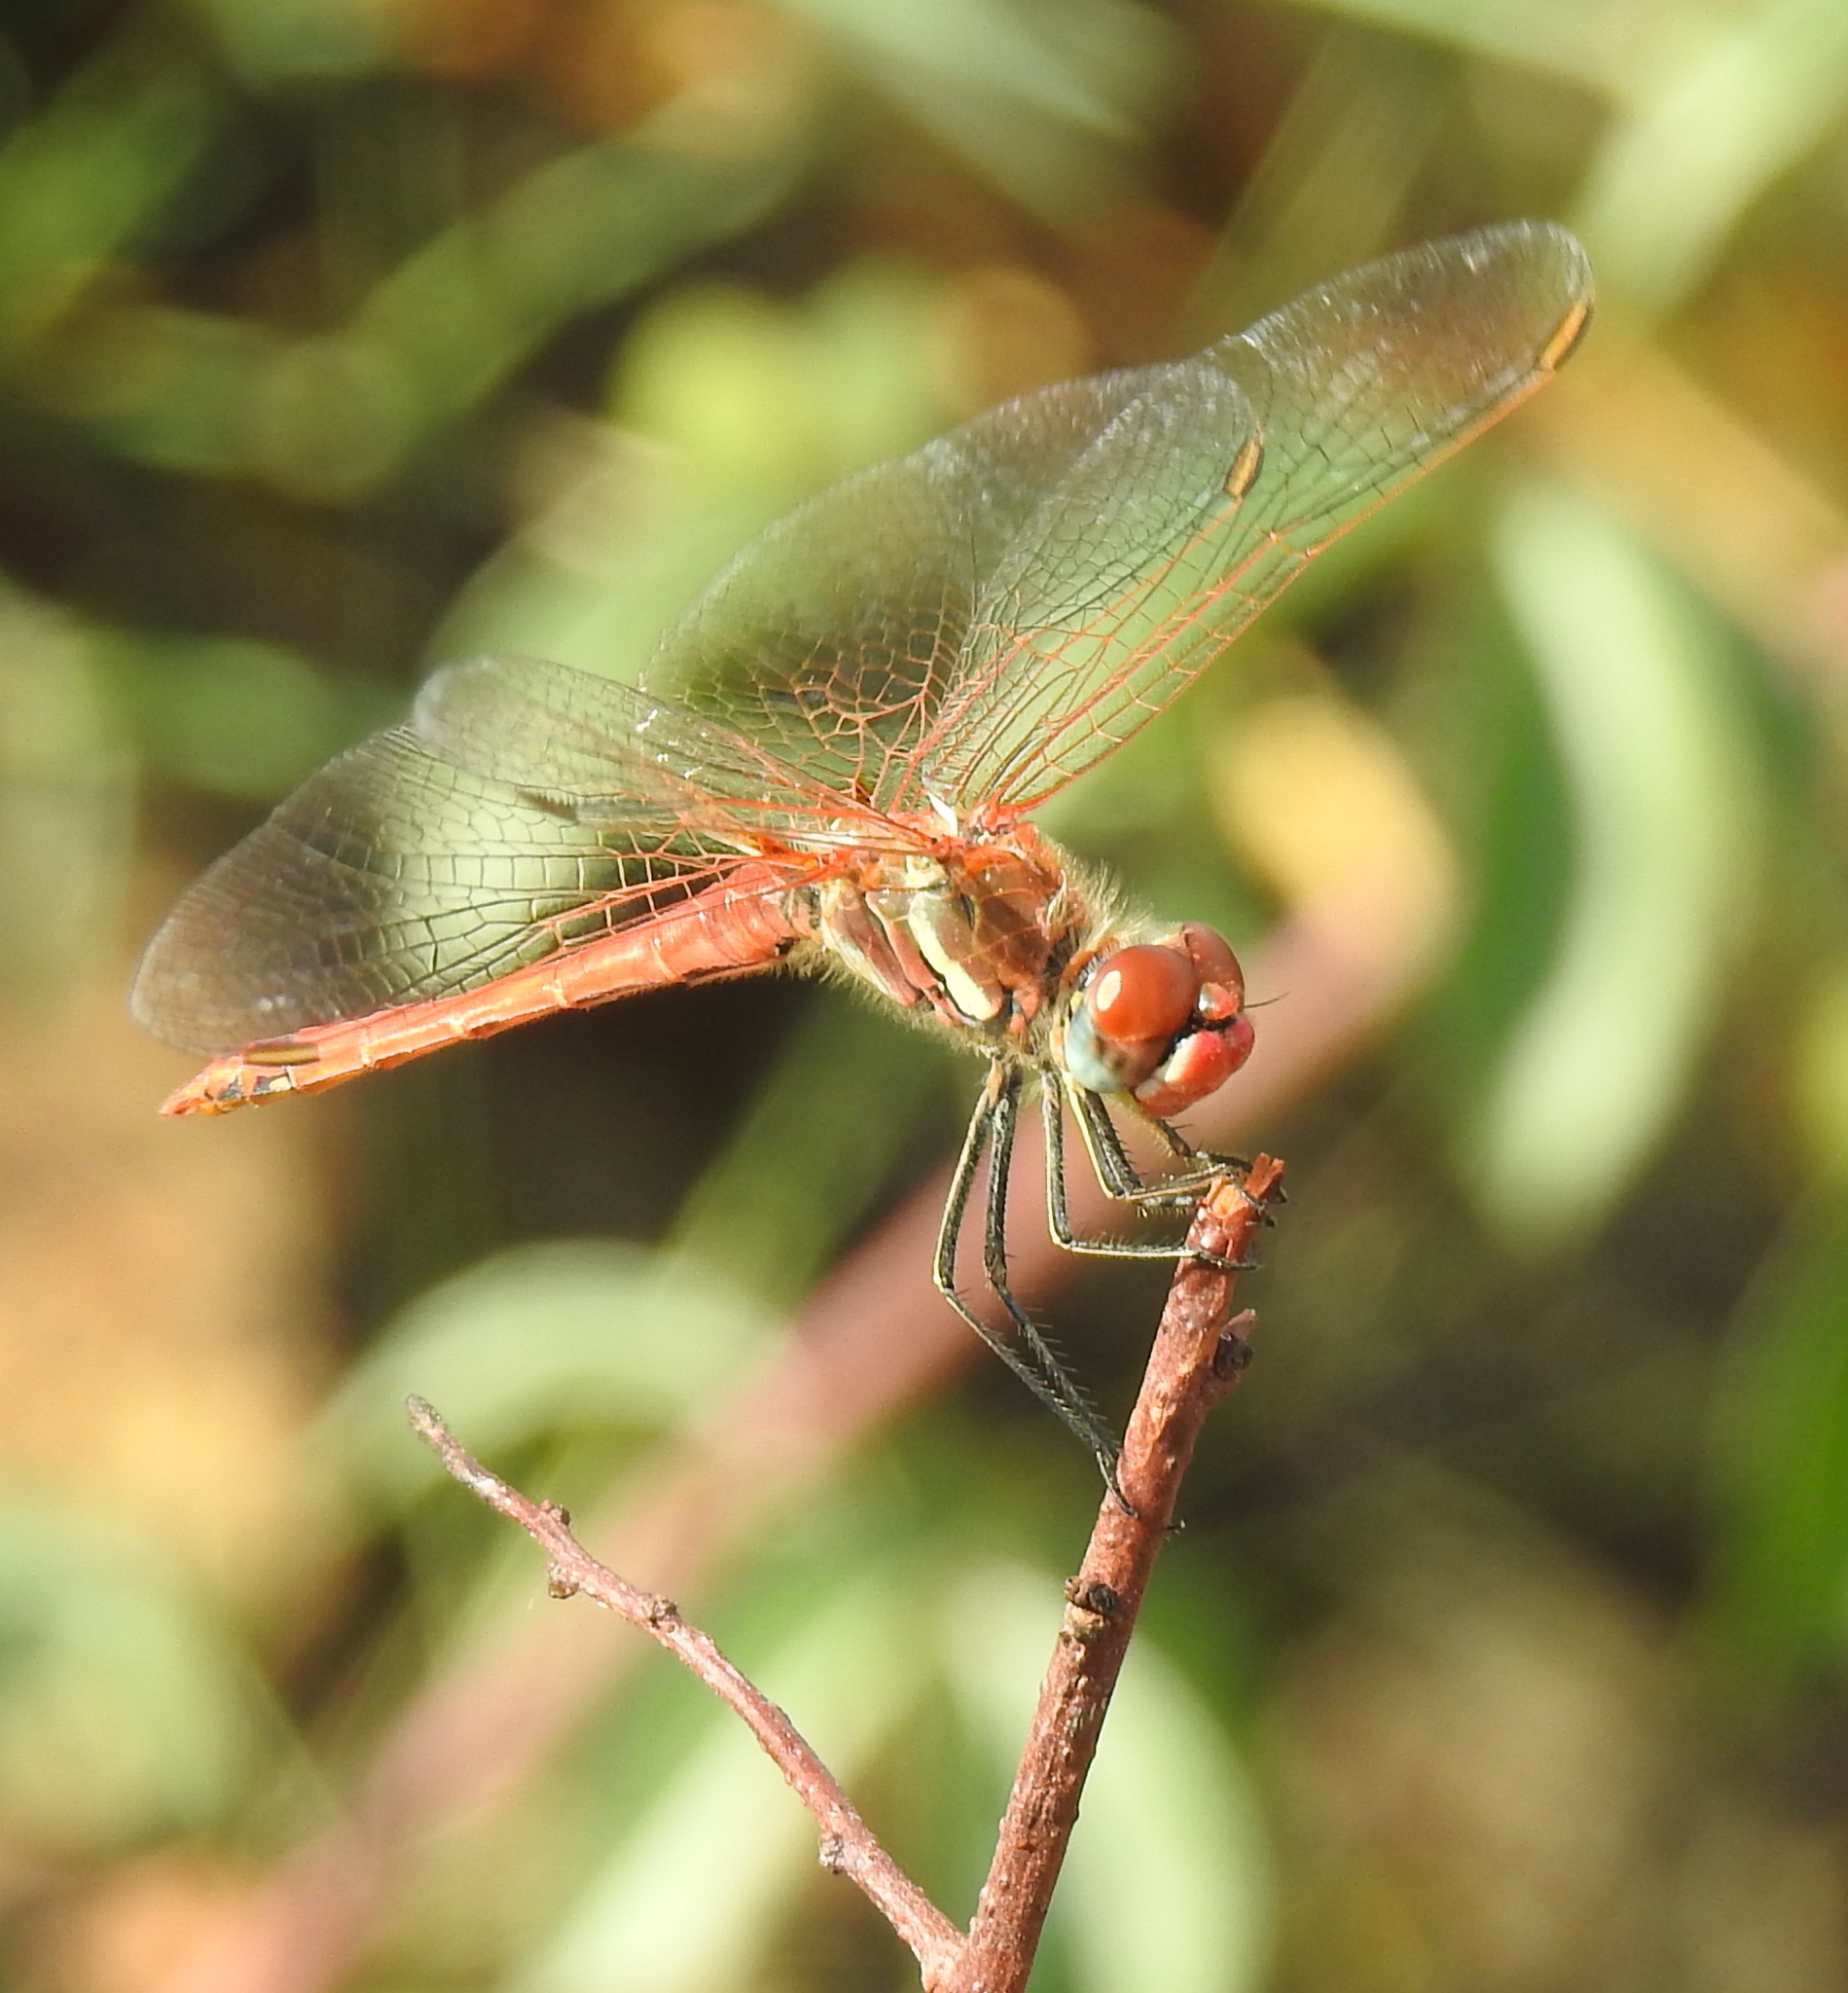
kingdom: Animalia
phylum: Arthropoda
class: Insecta
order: Odonata
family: Libellulidae
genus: Sympetrum
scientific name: Sympetrum fonscolombii
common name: Red-veined darter
